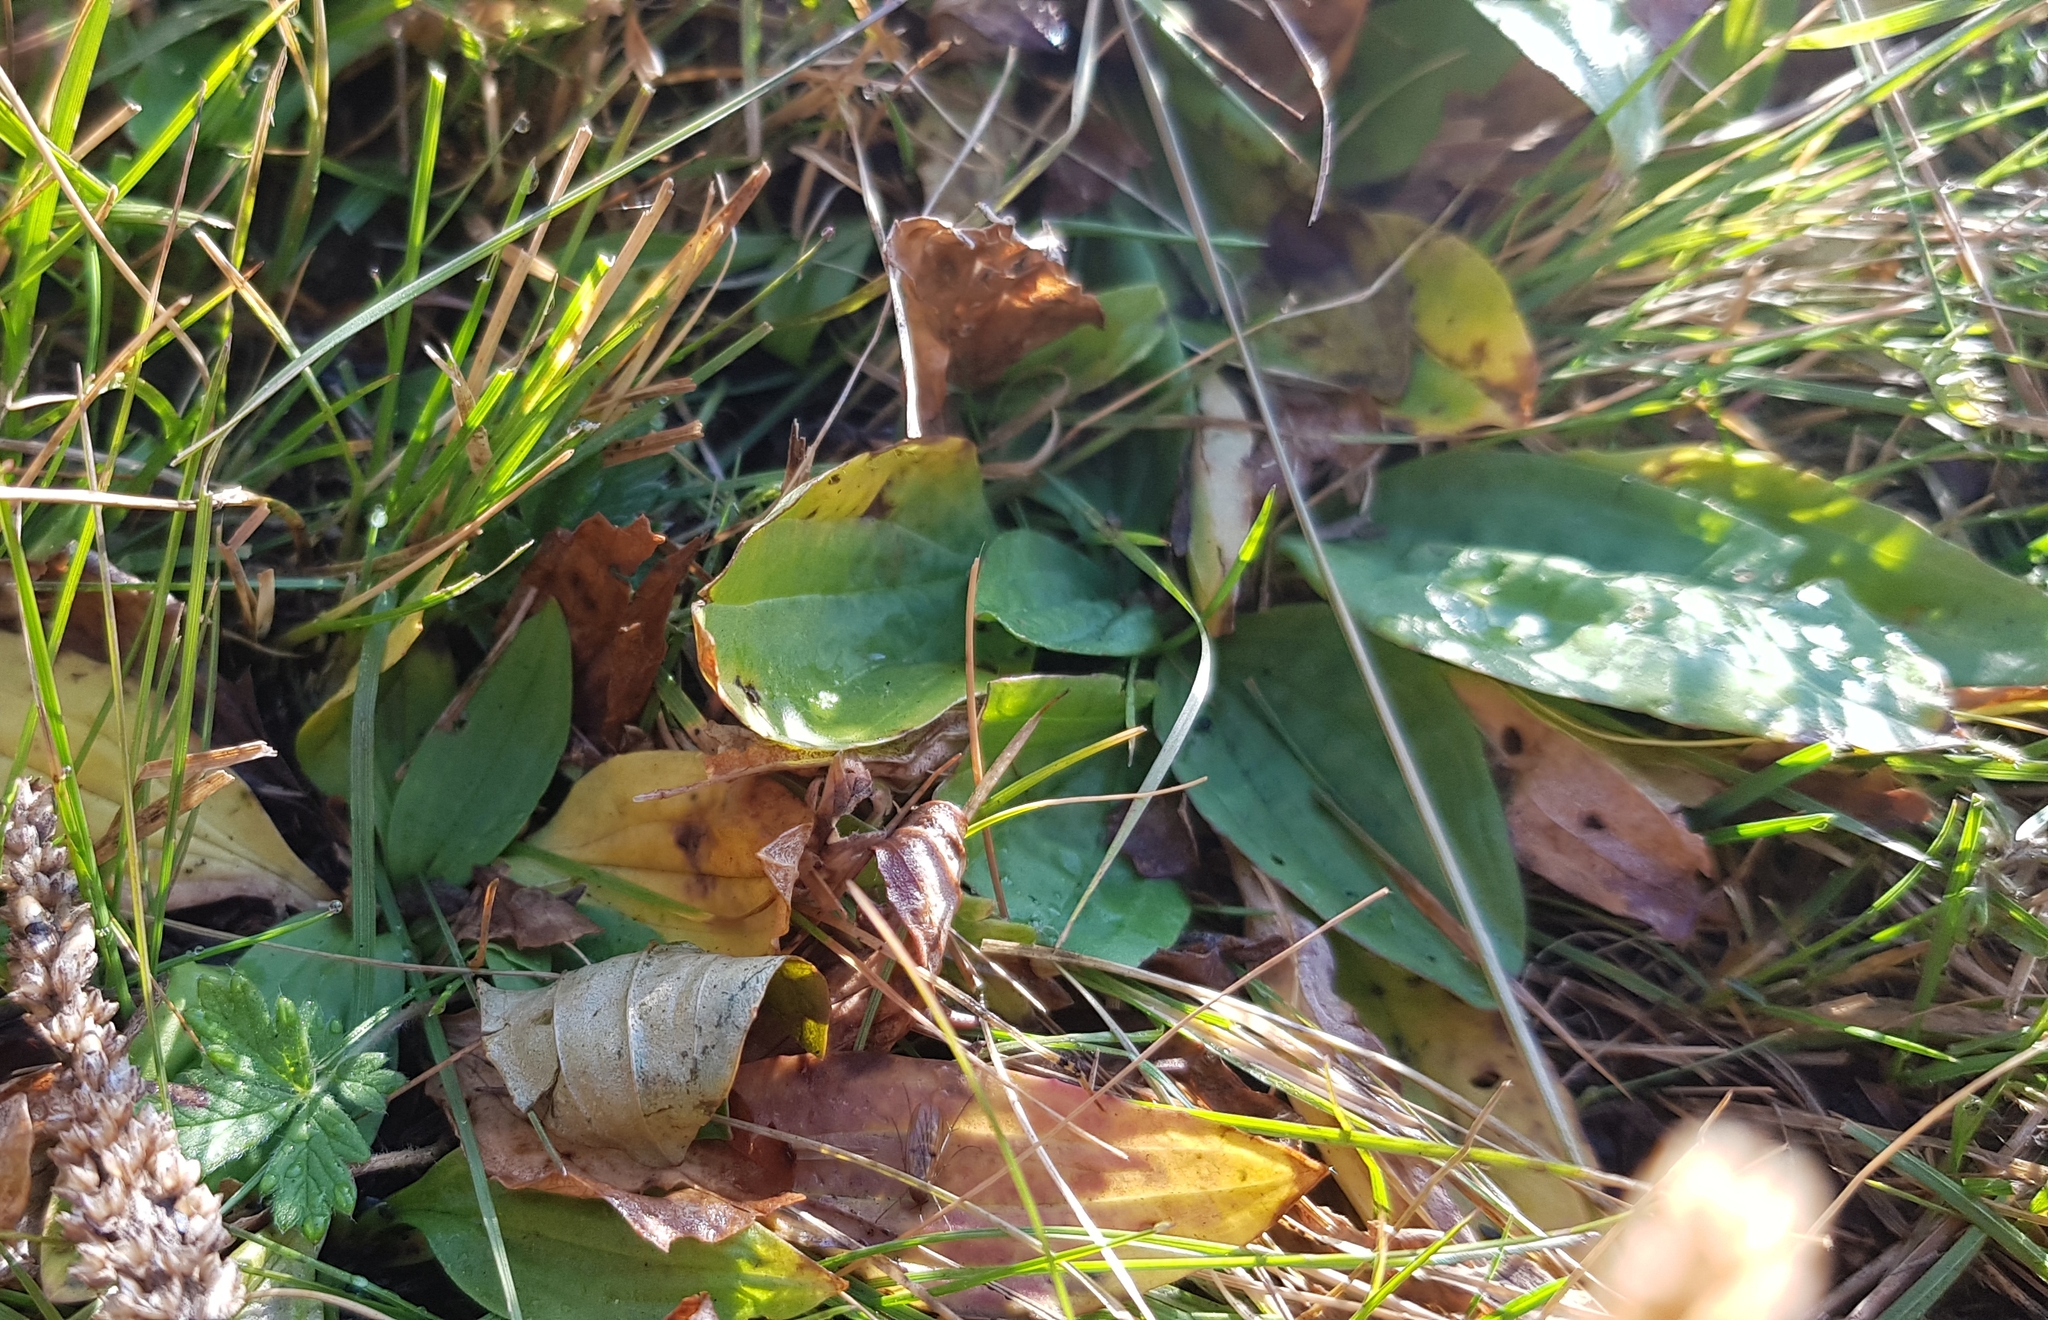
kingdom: Plantae
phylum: Tracheophyta
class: Magnoliopsida
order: Lamiales
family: Plantaginaceae
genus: Plantago
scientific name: Plantago media
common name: Hoary plantain
